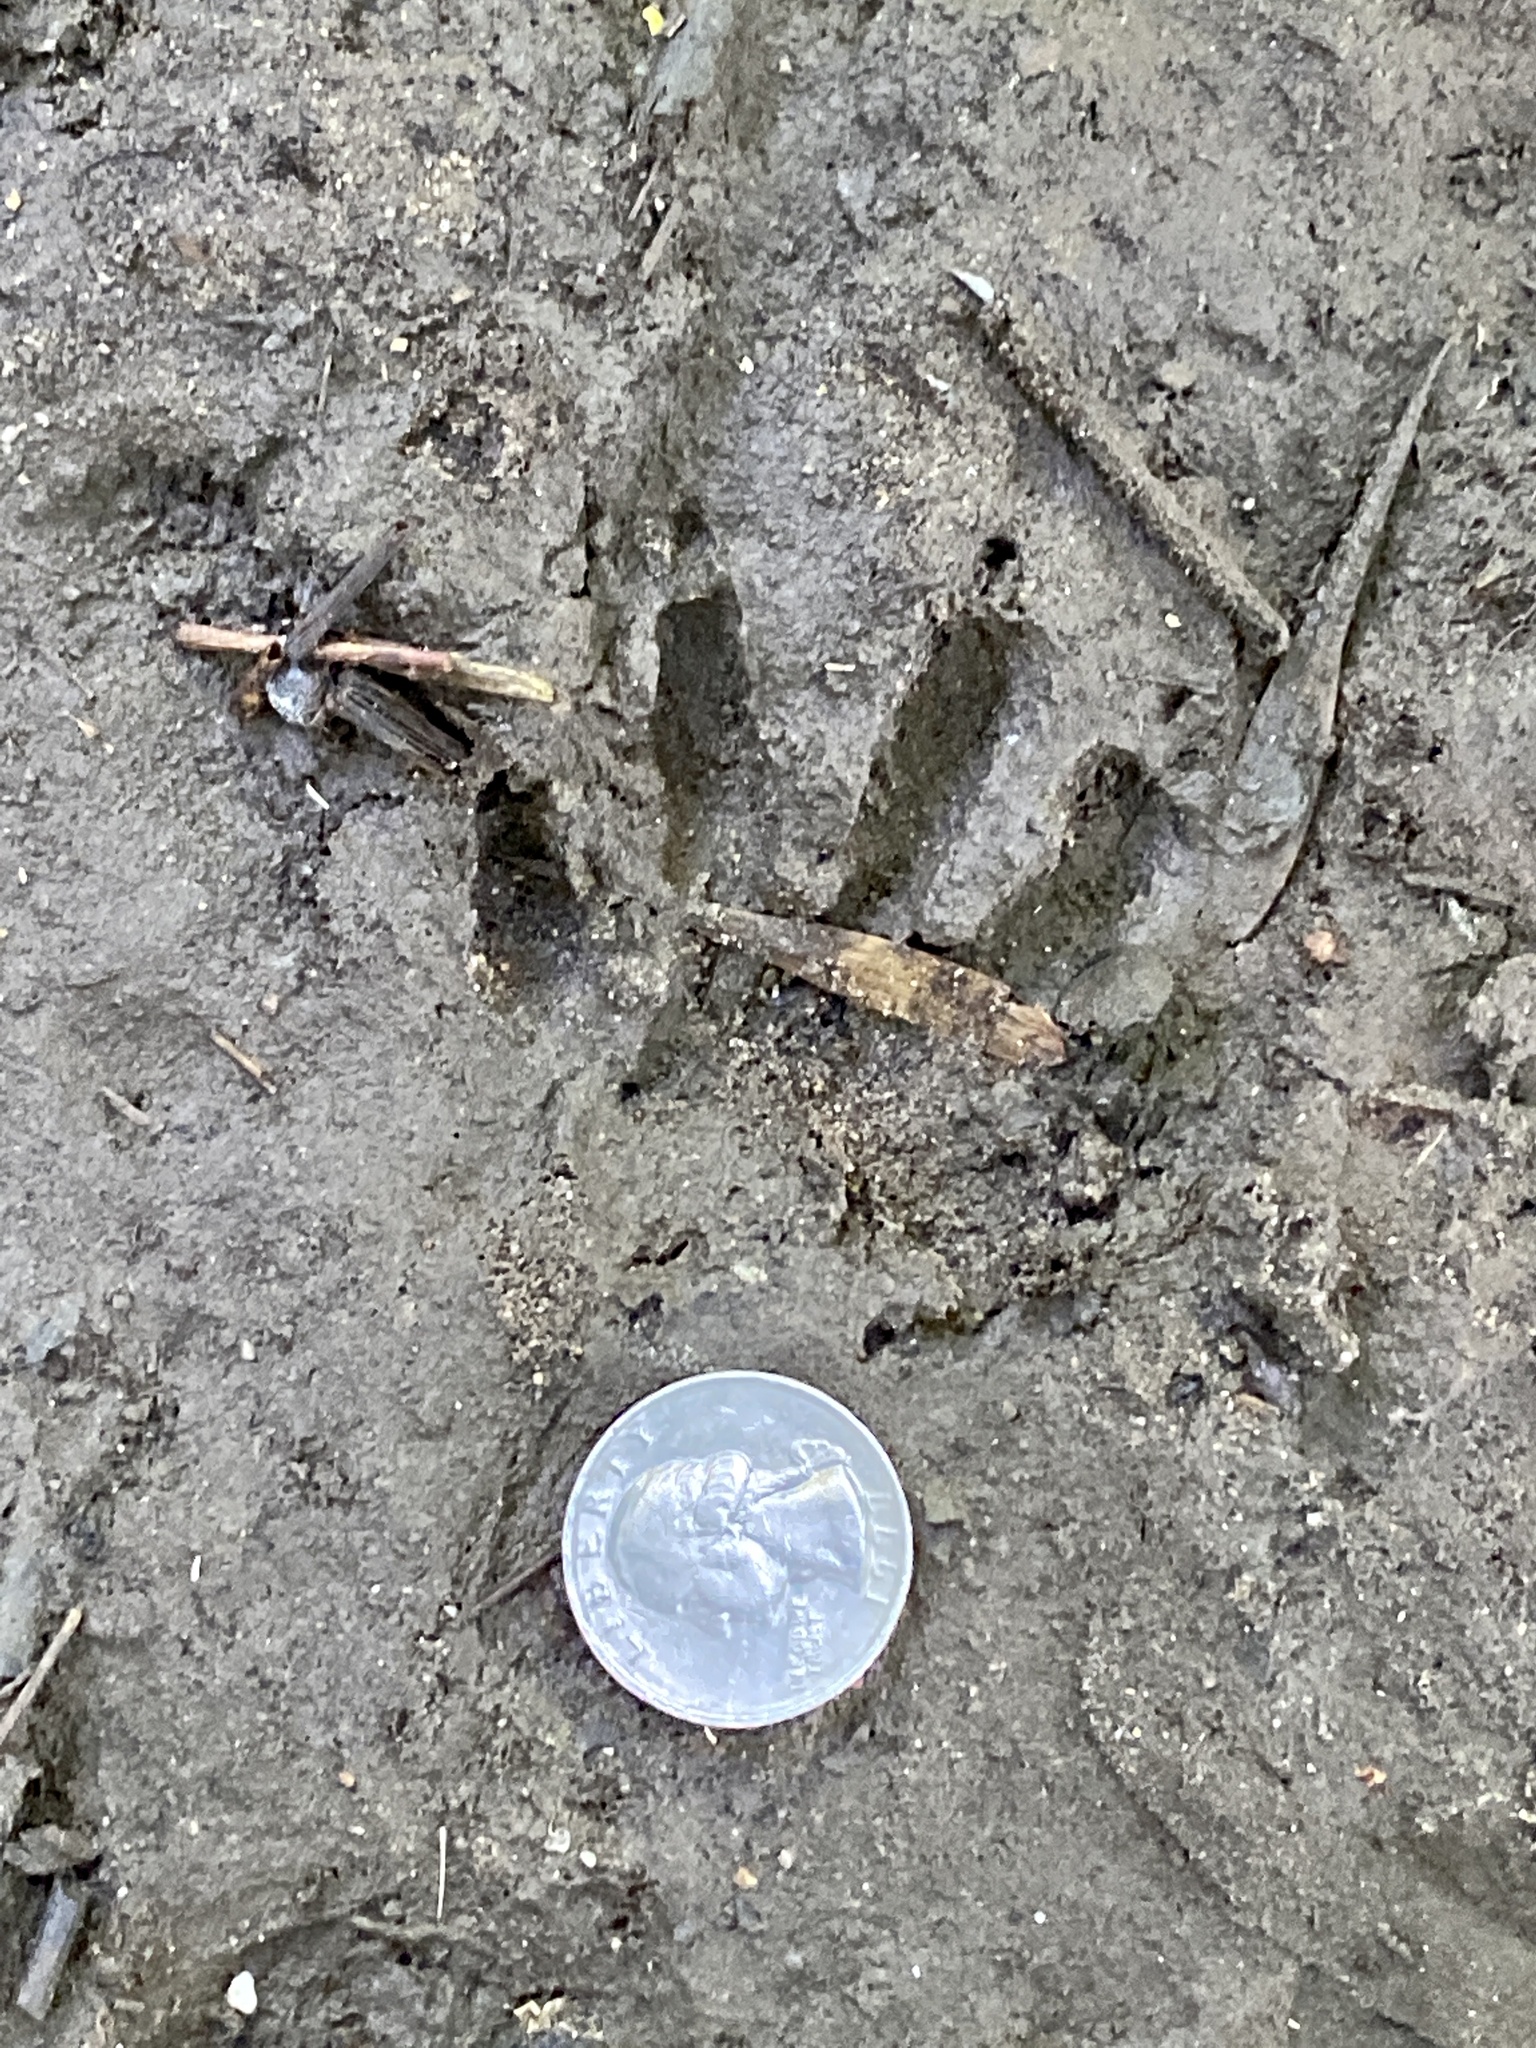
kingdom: Animalia
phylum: Chordata
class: Mammalia
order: Carnivora
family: Procyonidae
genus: Procyon
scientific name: Procyon lotor
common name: Raccoon
